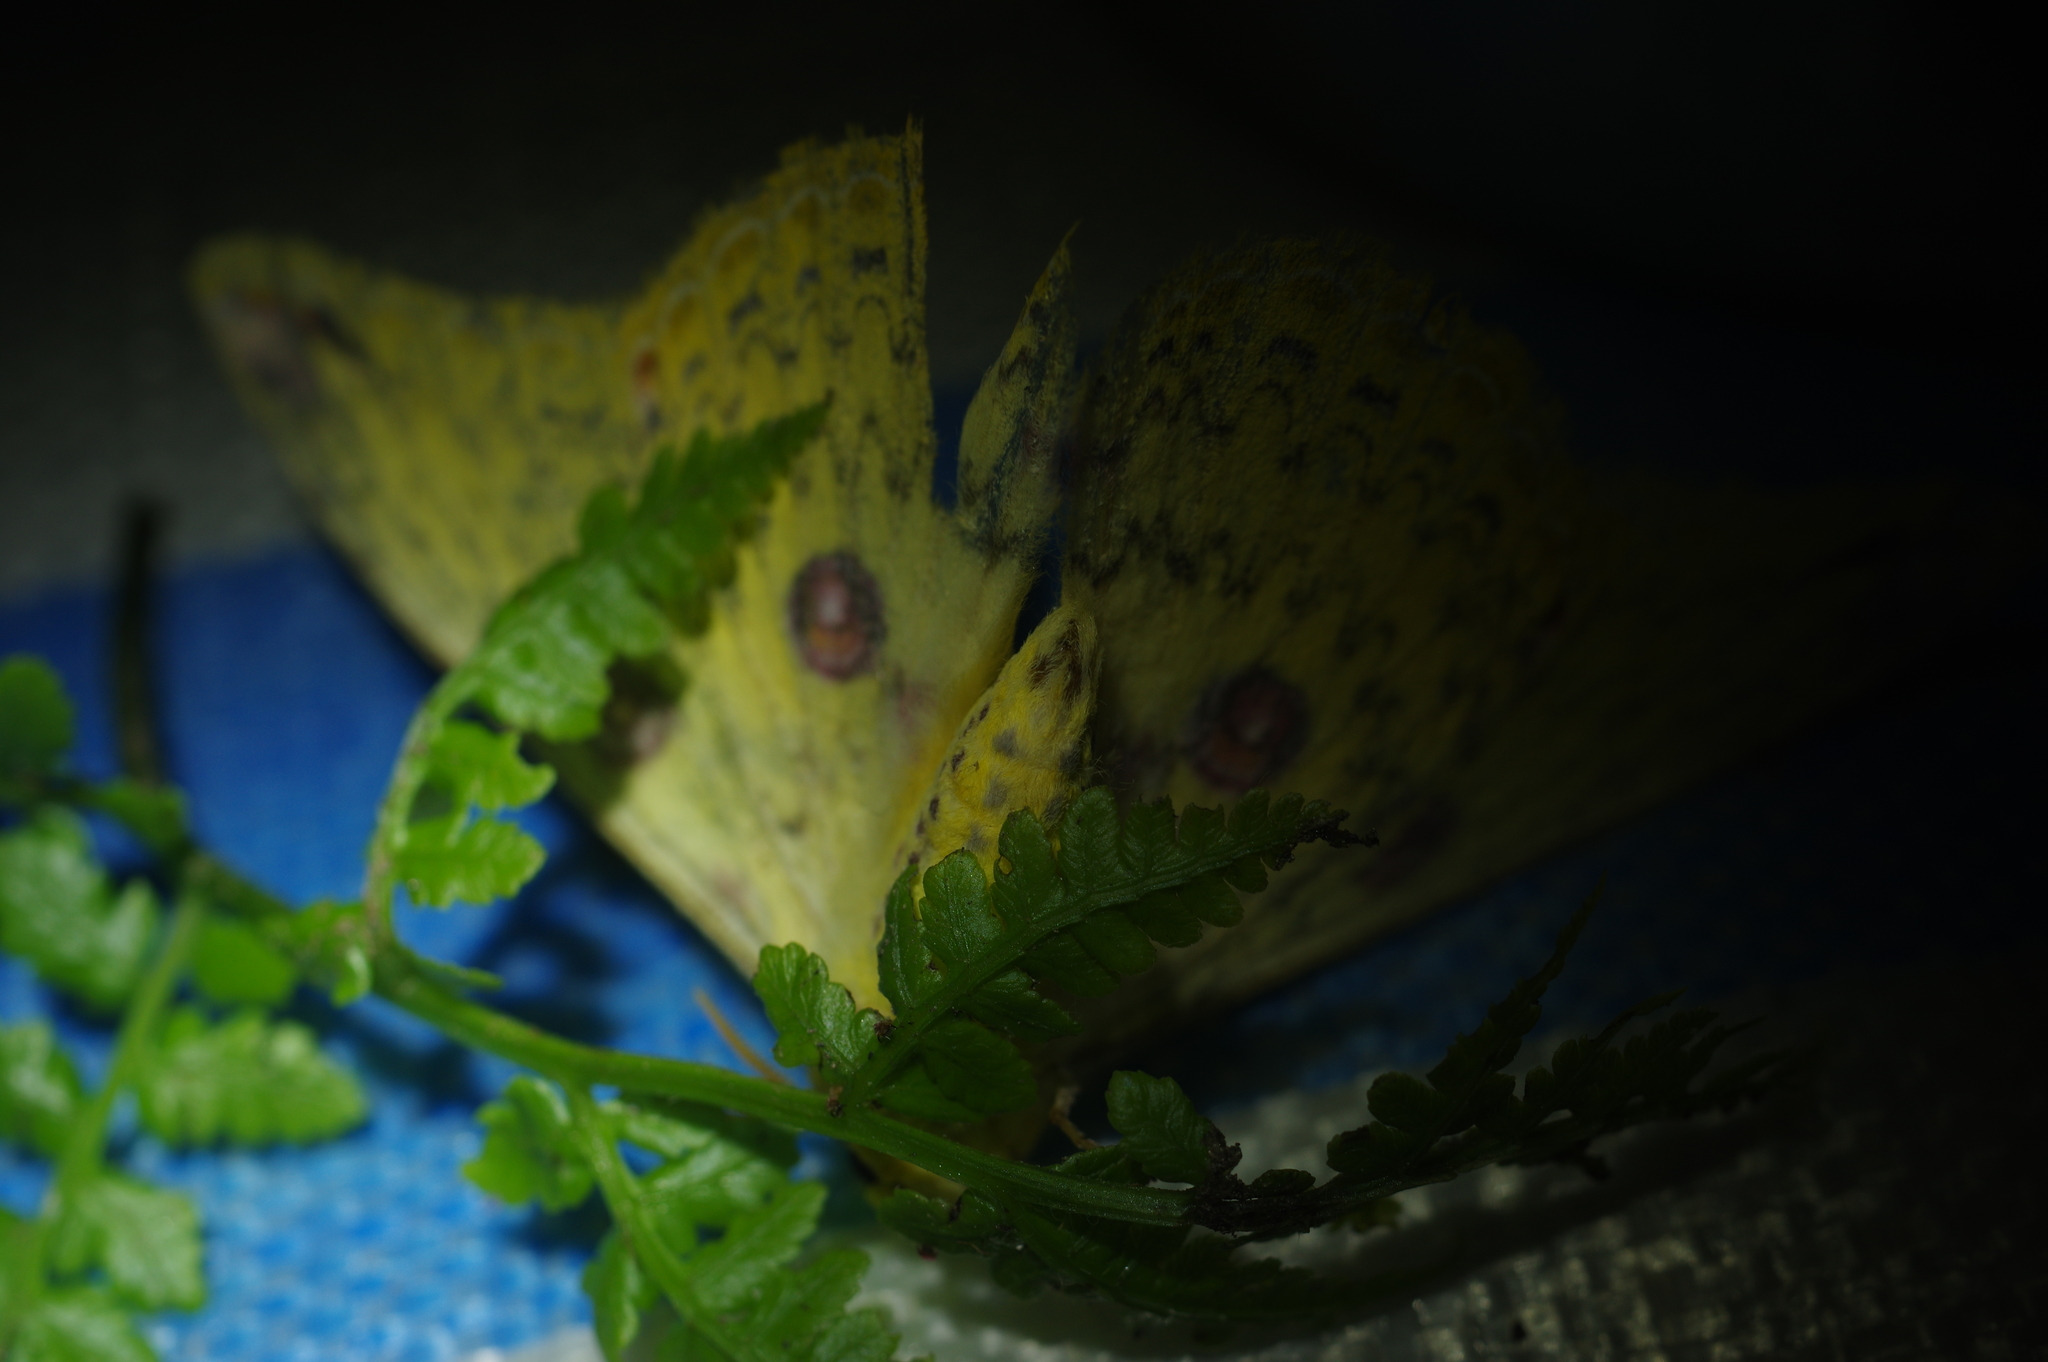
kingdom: Animalia
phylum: Arthropoda
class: Insecta
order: Lepidoptera
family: Saturniidae
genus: Loepa
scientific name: Loepa formosensis
